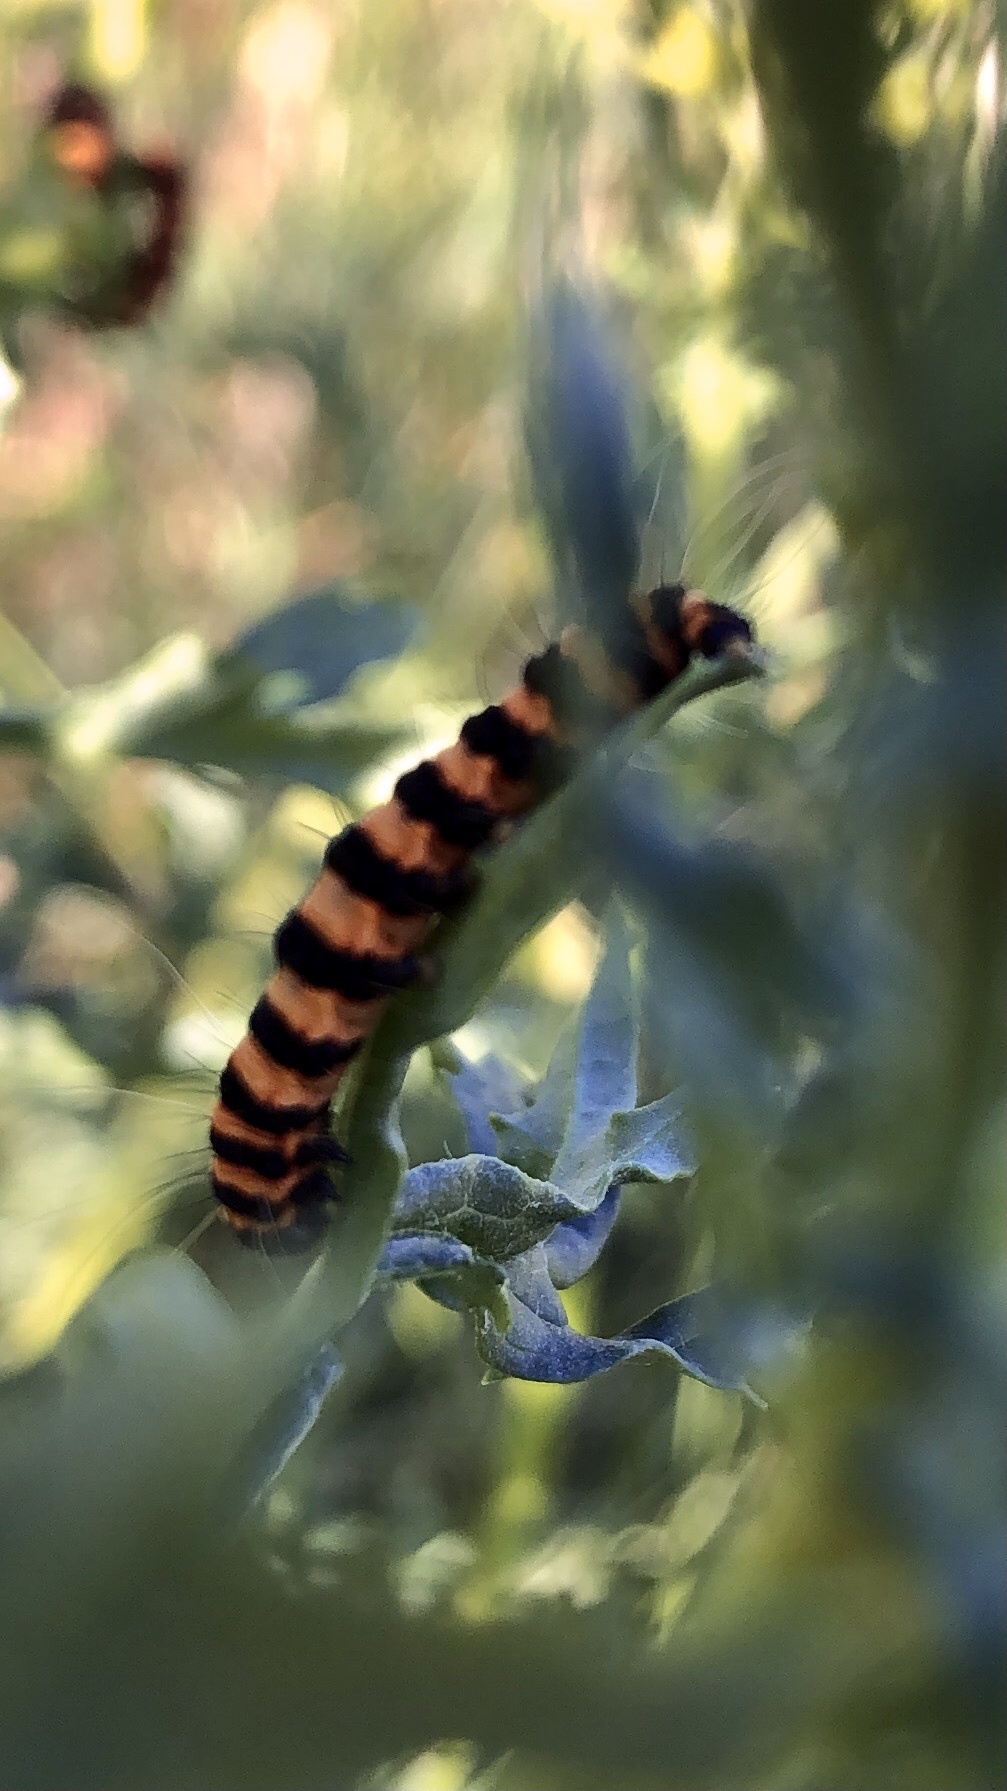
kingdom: Animalia
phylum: Arthropoda
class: Insecta
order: Lepidoptera
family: Erebidae
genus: Tyria
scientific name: Tyria jacobaeae
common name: Cinnabar
